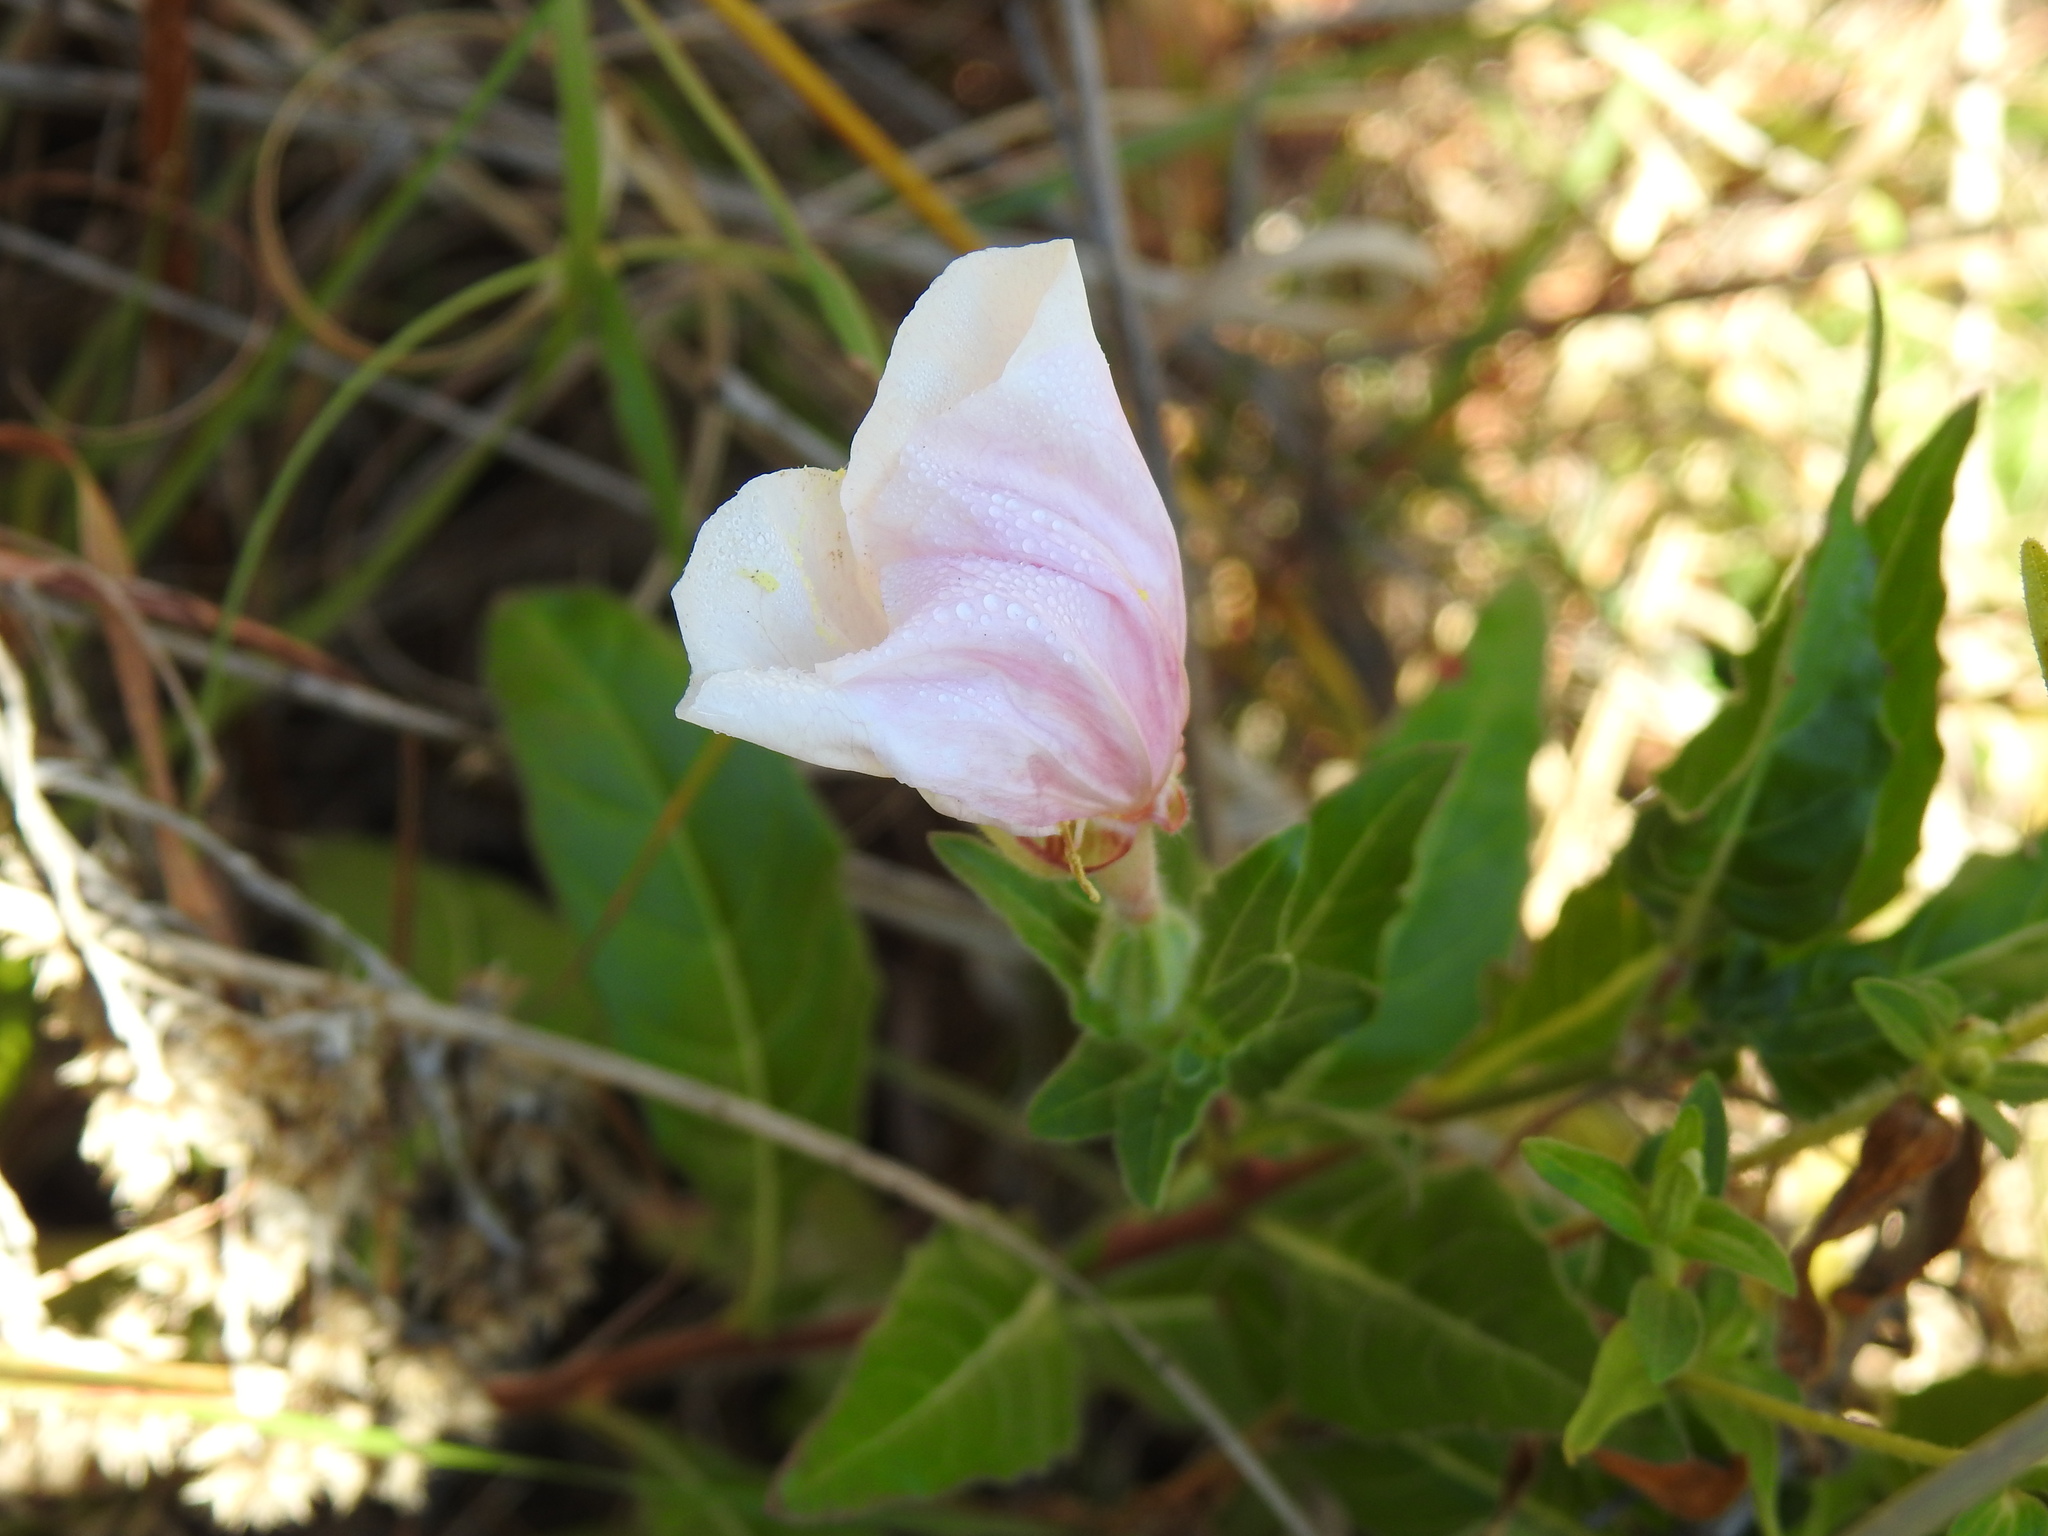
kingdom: Plantae
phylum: Tracheophyta
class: Magnoliopsida
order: Myrtales
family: Onagraceae
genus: Oenothera
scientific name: Oenothera tetraptera
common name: Four-wing evening-primrose
